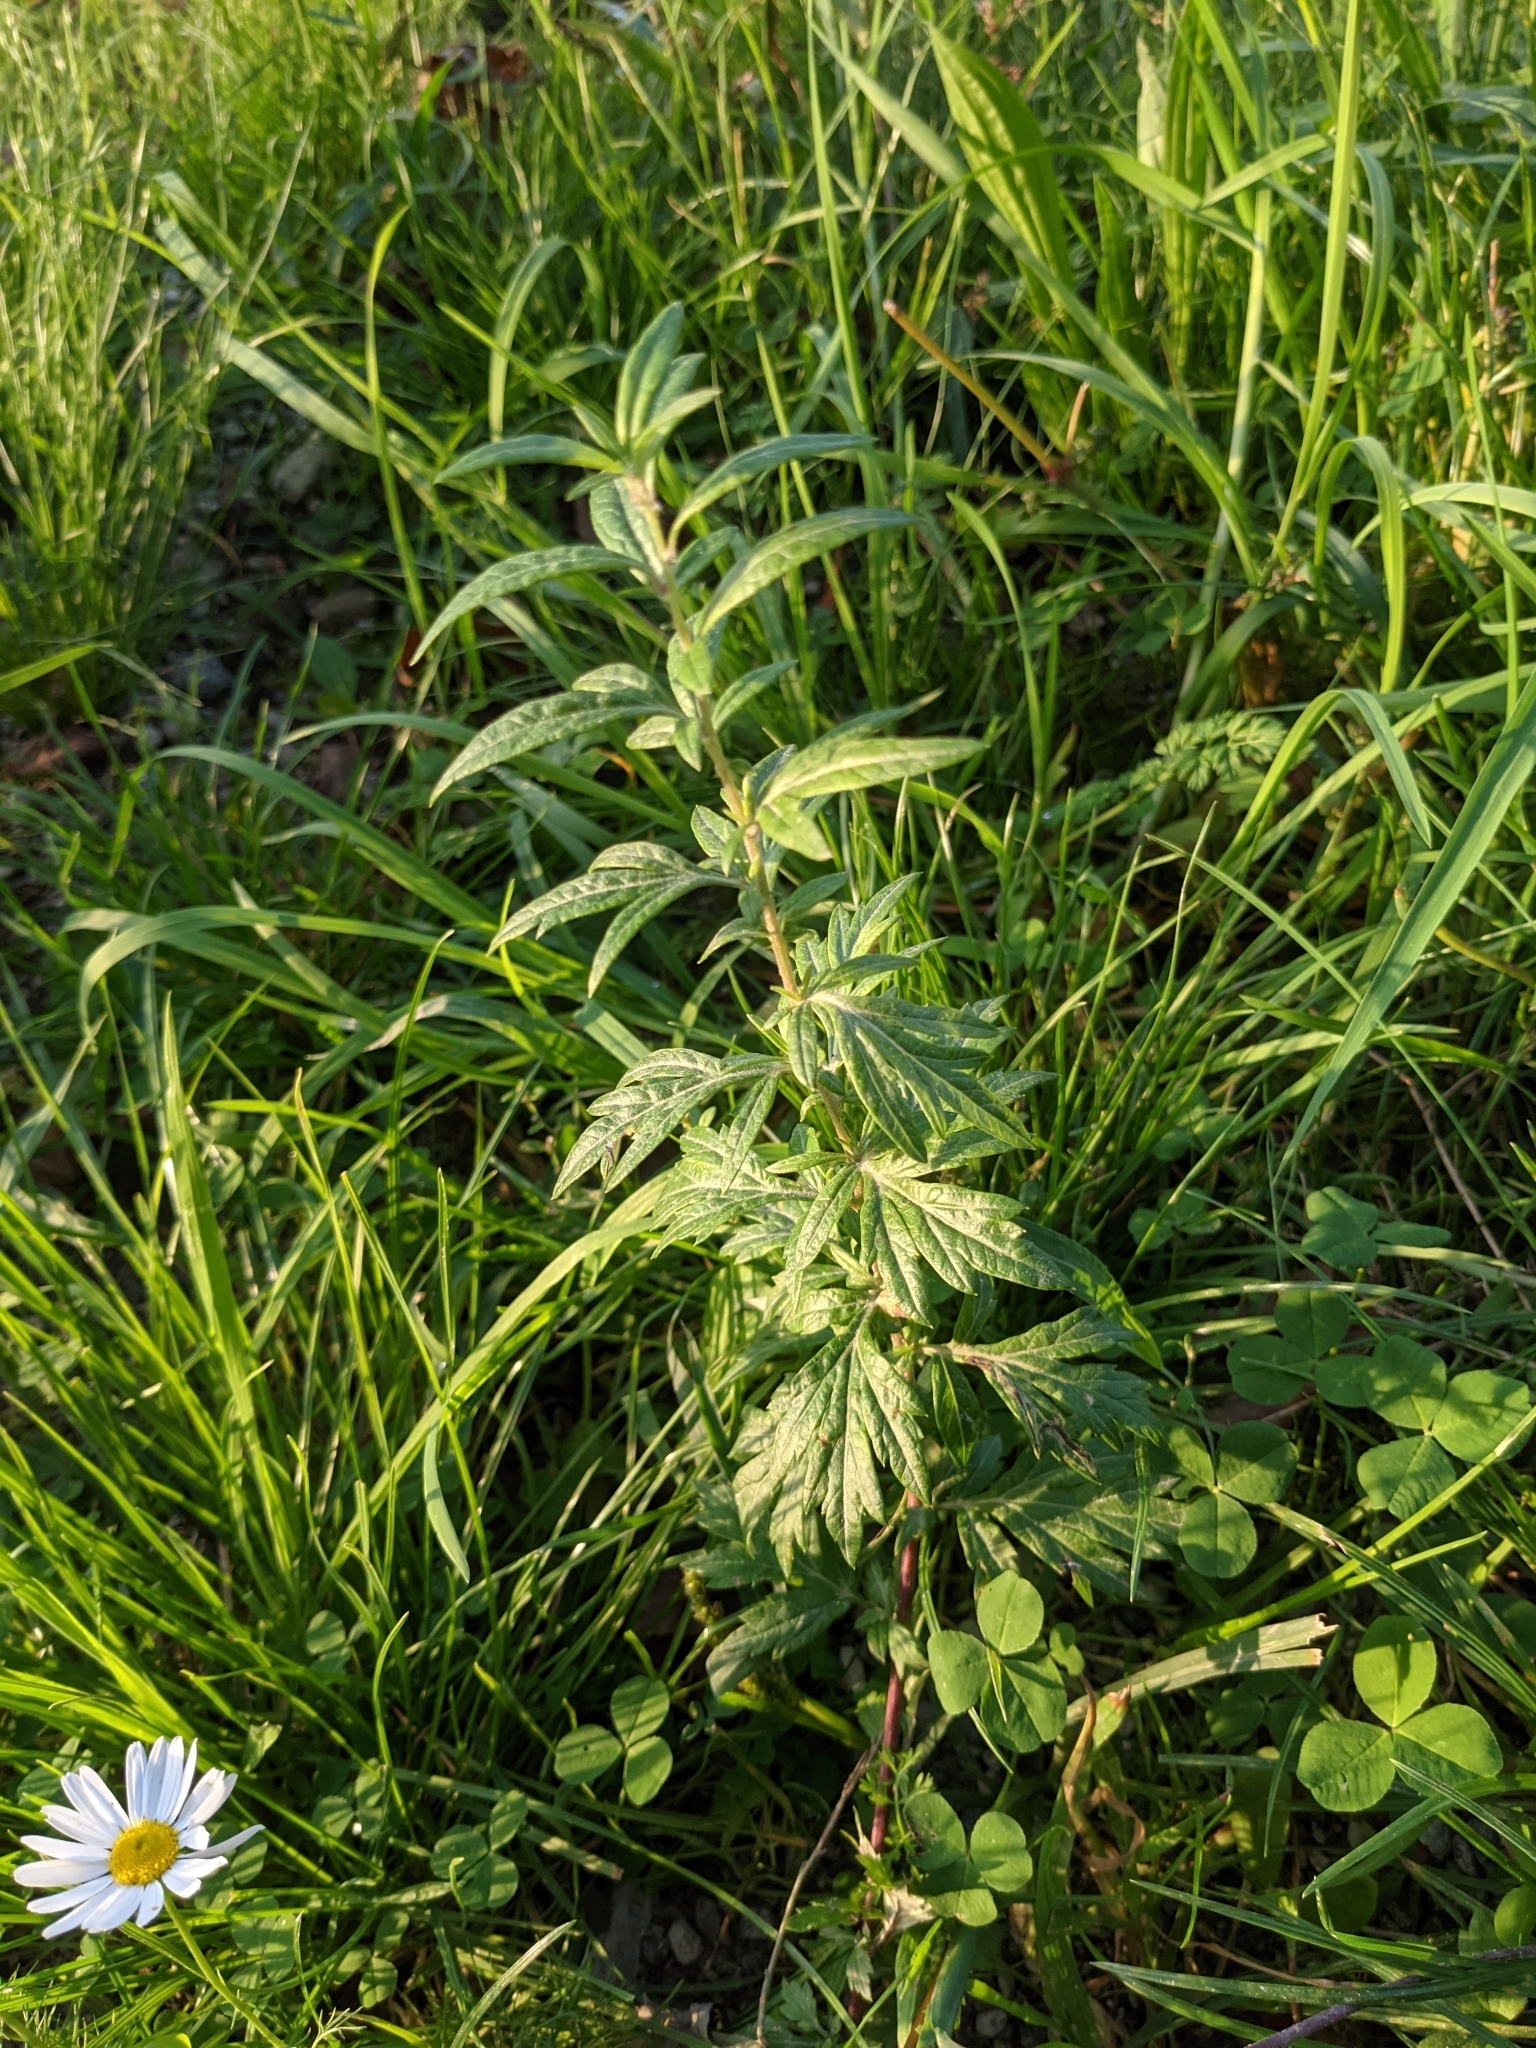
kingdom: Plantae
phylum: Tracheophyta
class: Magnoliopsida
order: Asterales
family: Asteraceae
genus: Artemisia
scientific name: Artemisia vulgaris
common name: Mugwort
